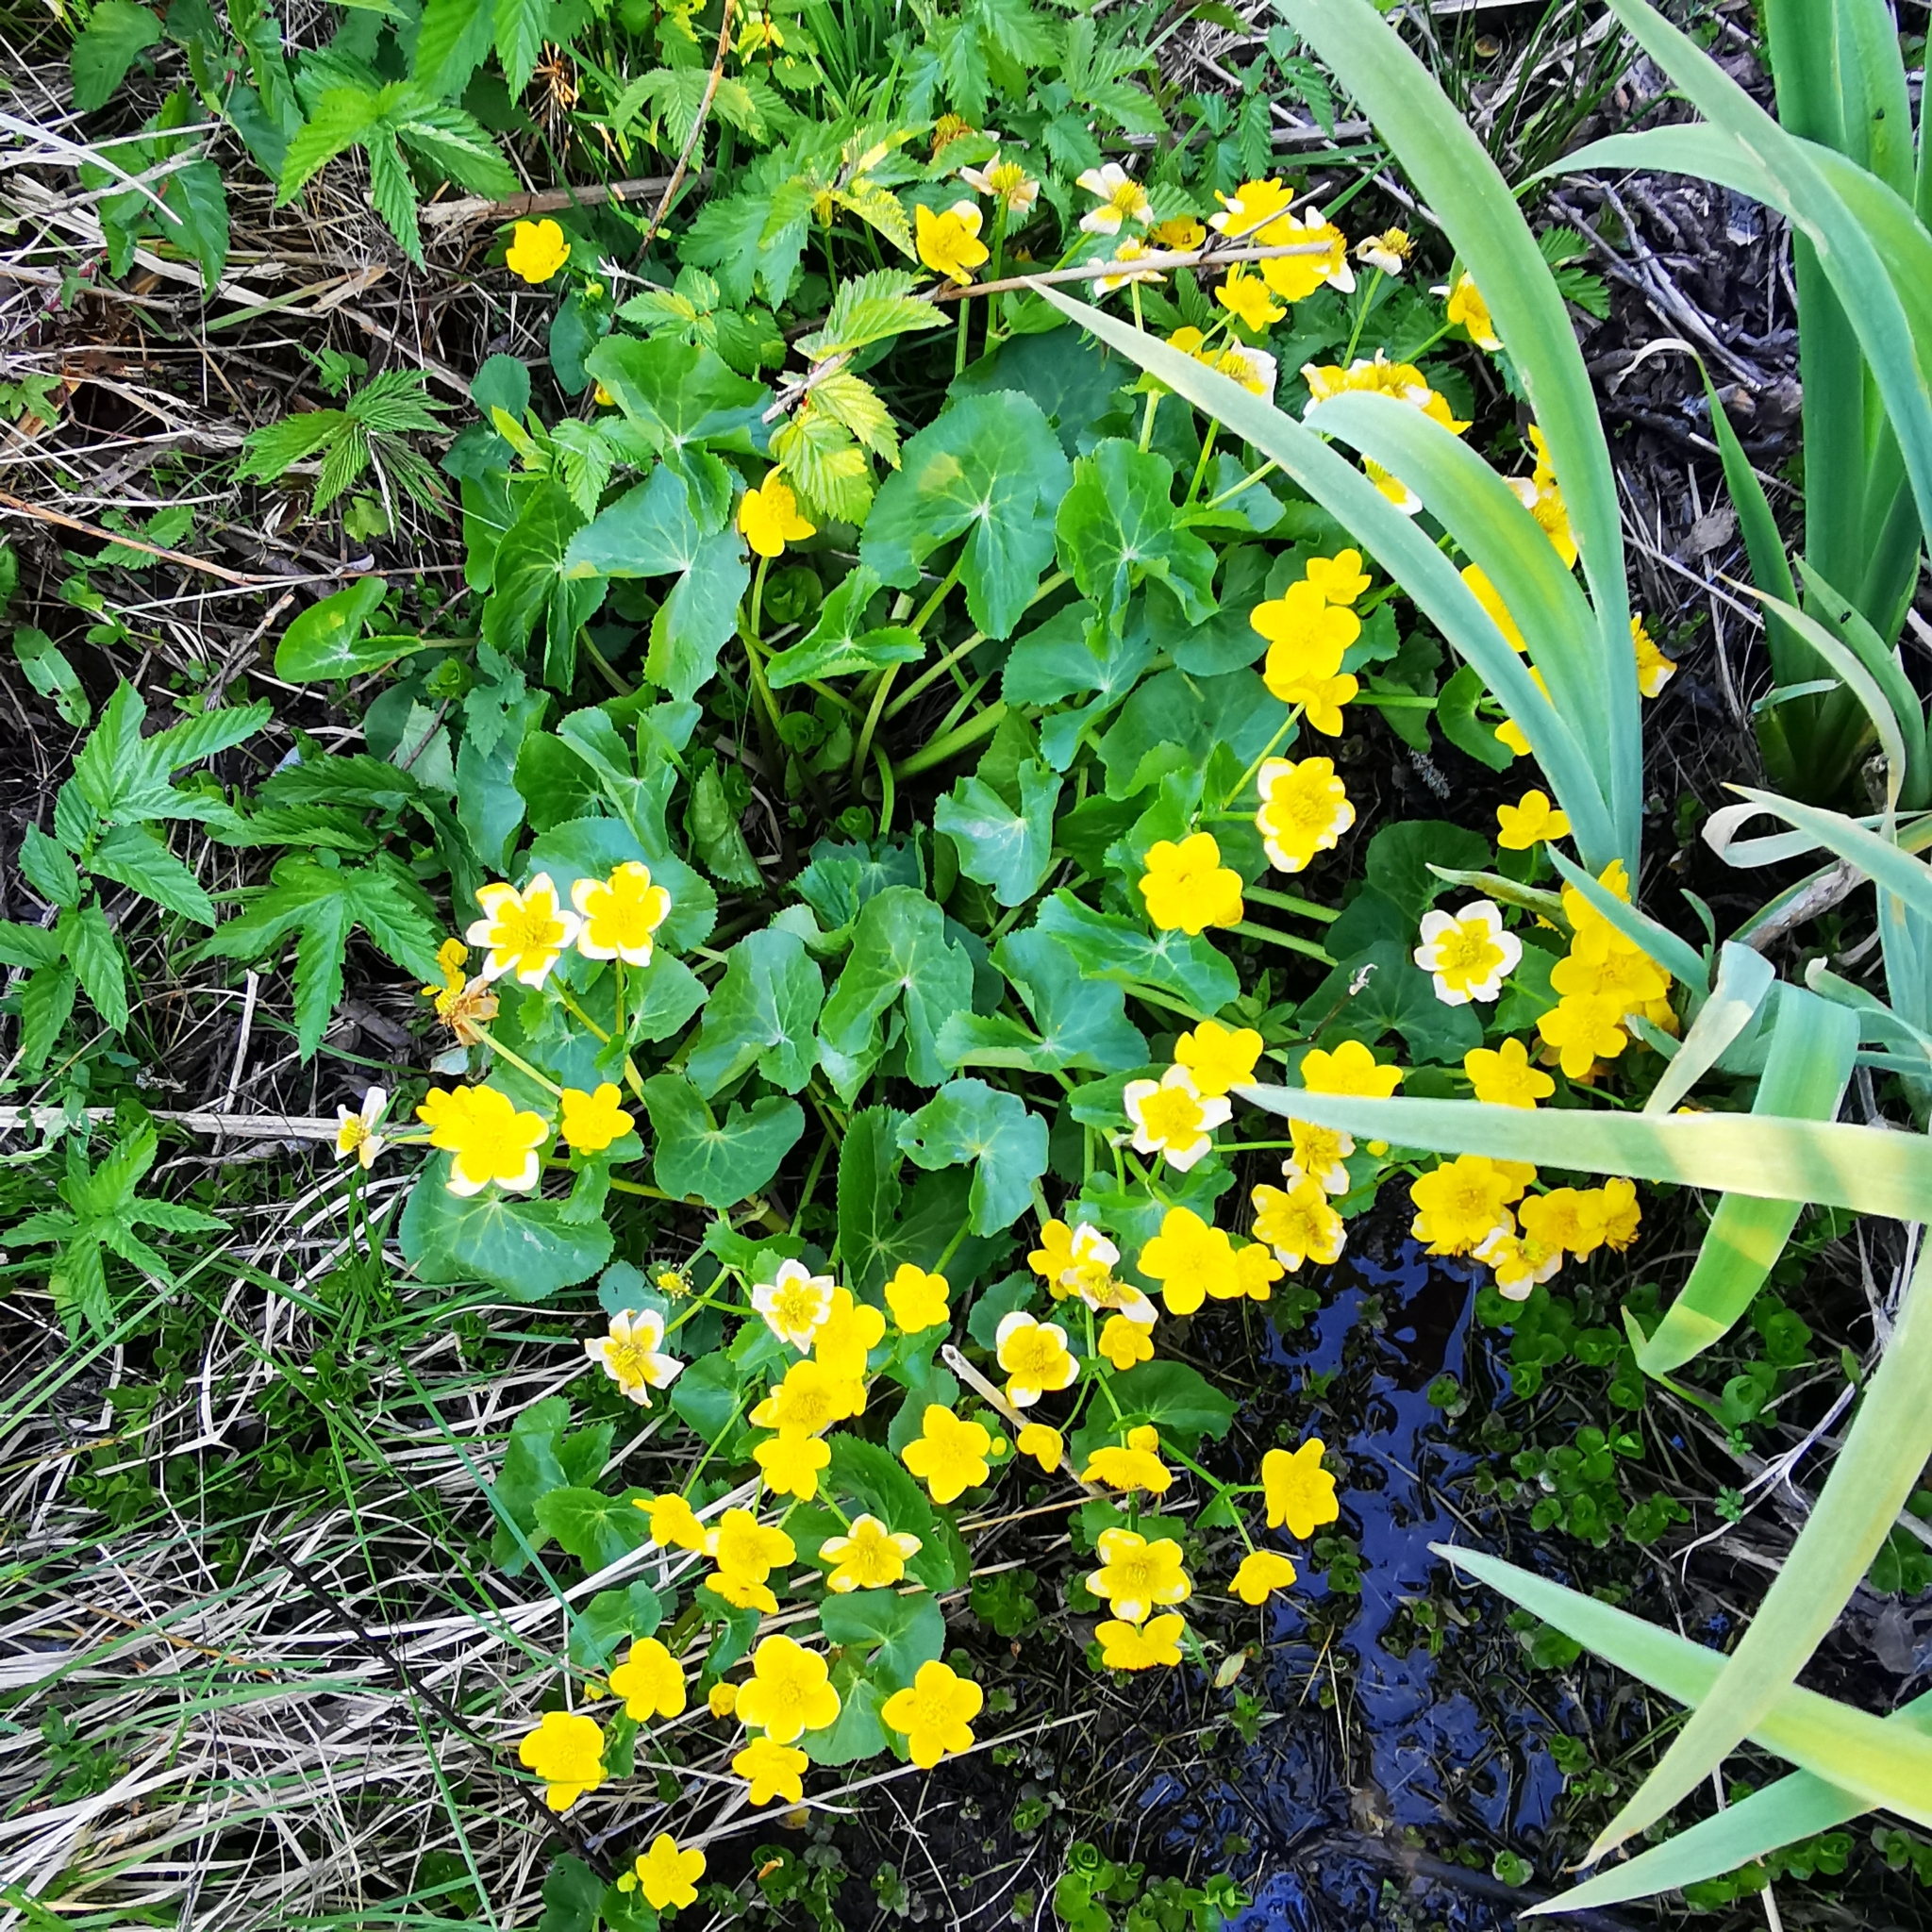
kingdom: Plantae
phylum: Tracheophyta
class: Magnoliopsida
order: Ranunculales
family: Ranunculaceae
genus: Caltha
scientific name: Caltha palustris
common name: Marsh marigold
